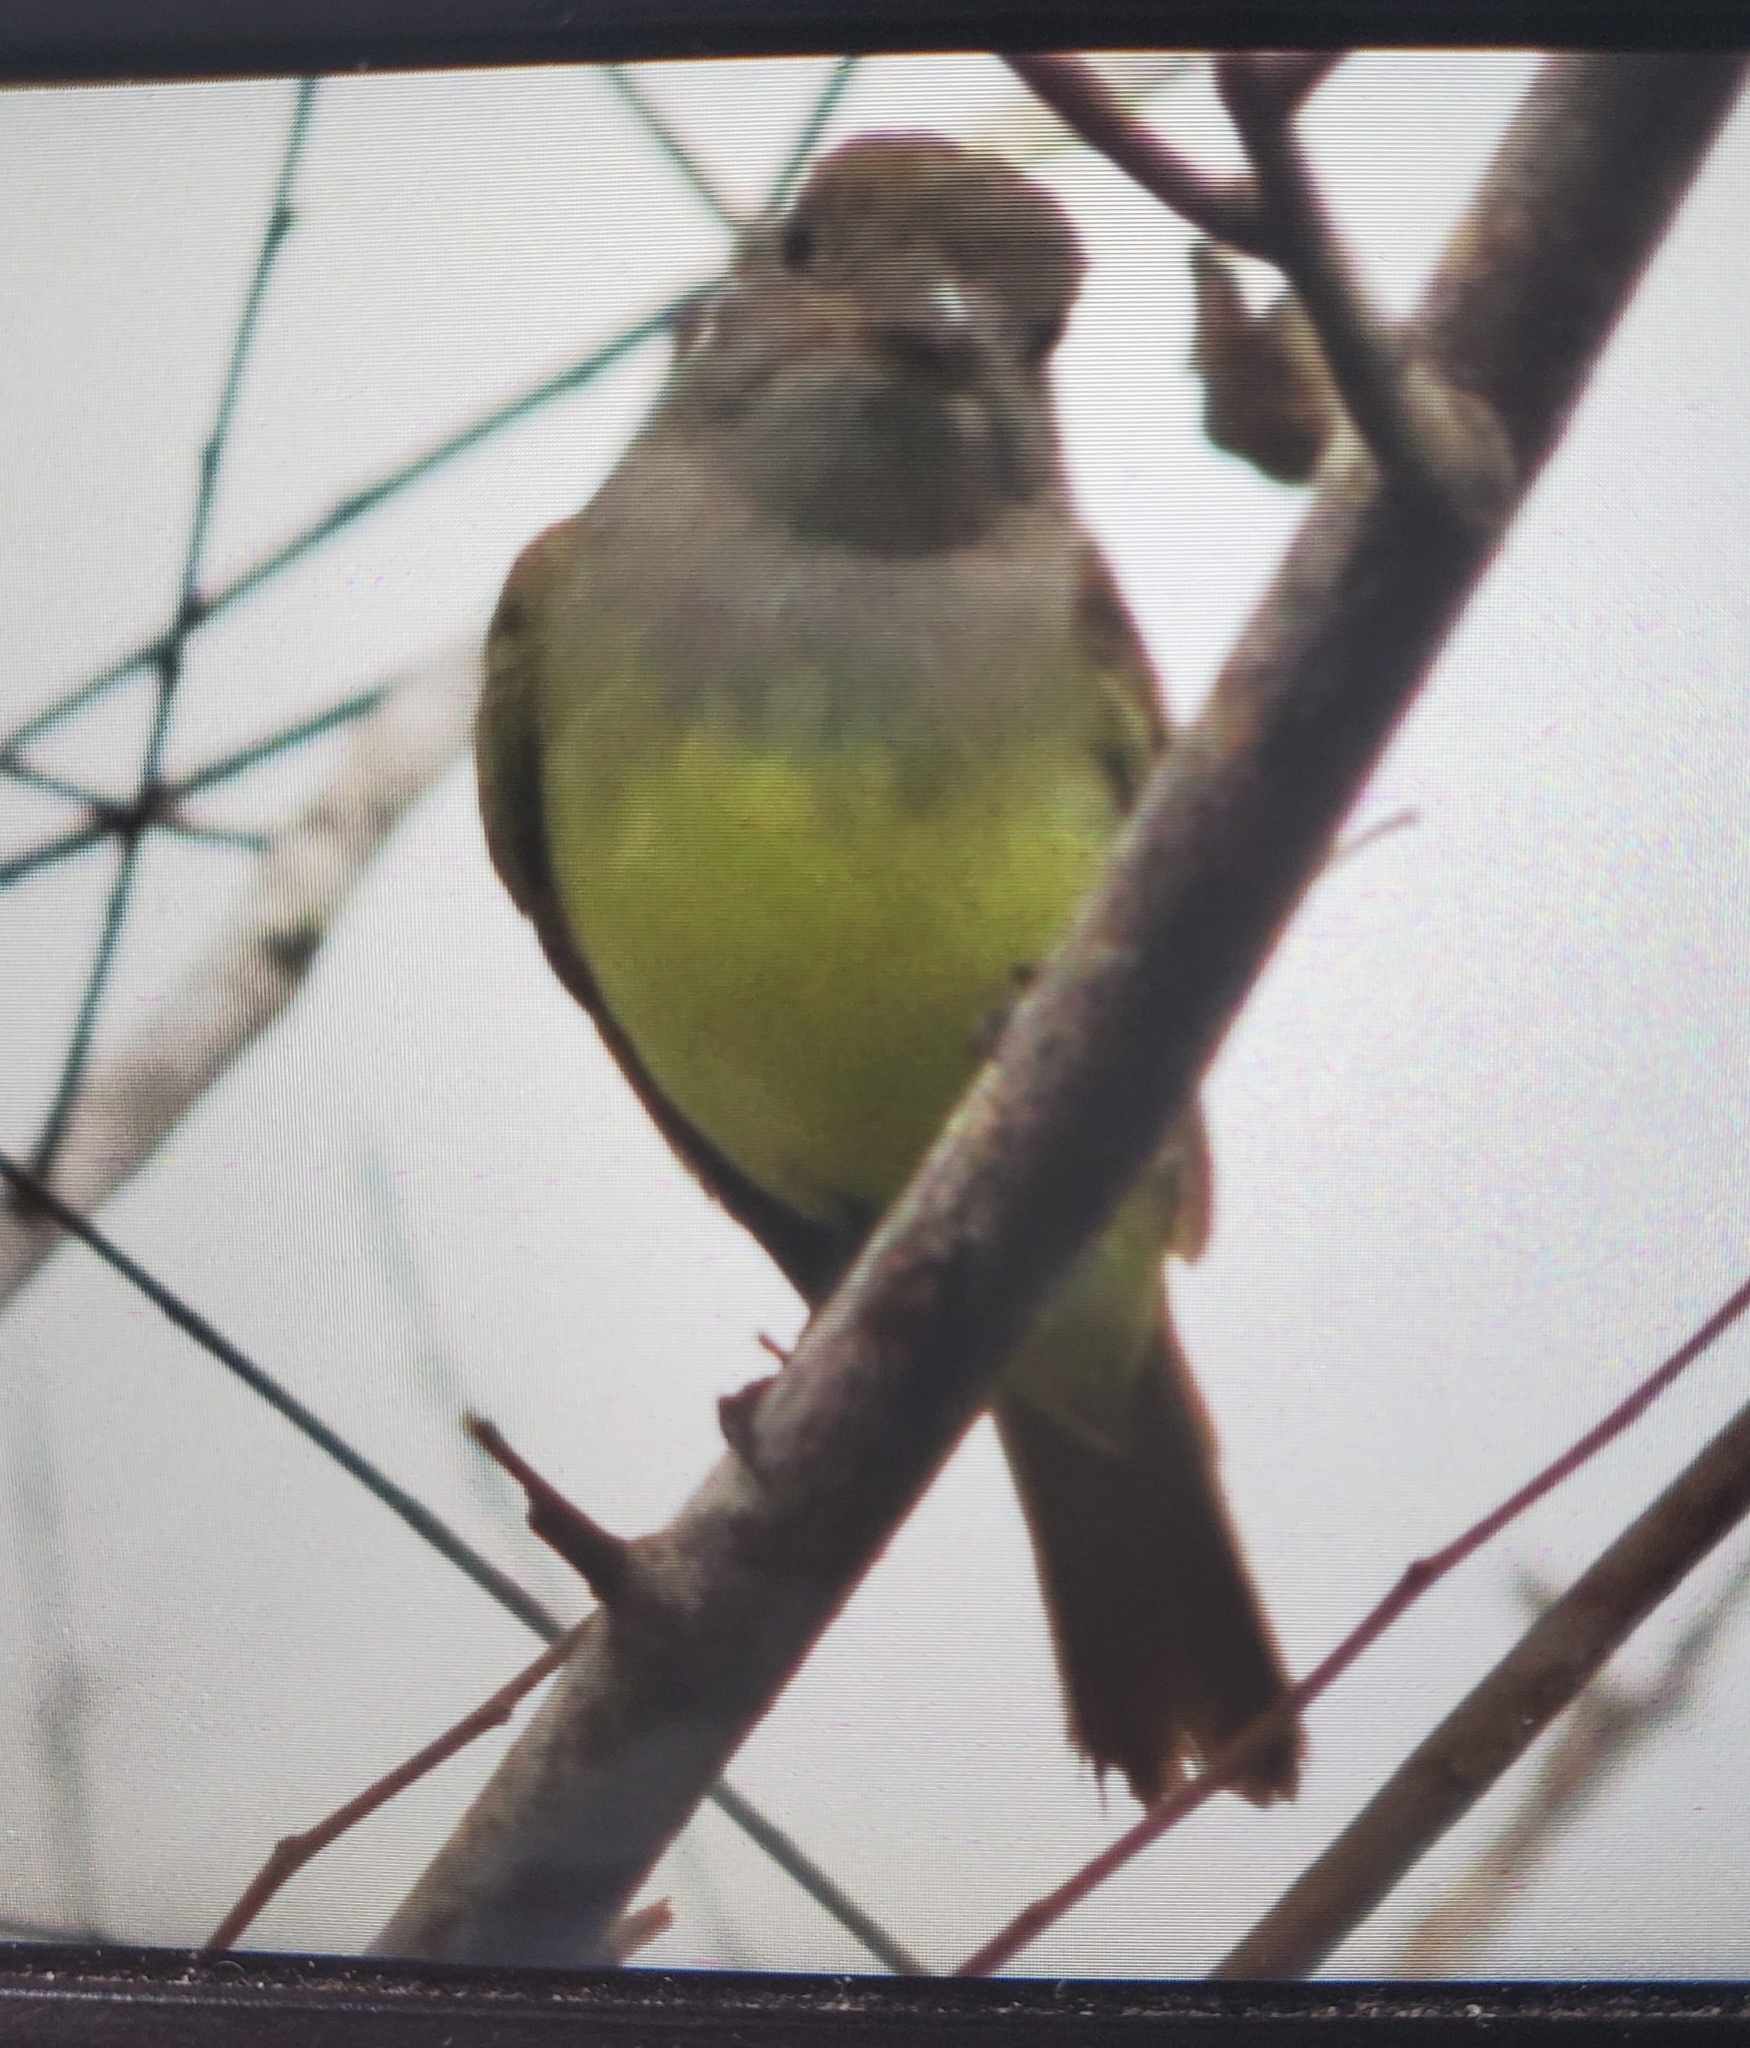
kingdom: Animalia
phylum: Chordata
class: Aves
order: Passeriformes
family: Tyrannidae
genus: Myiarchus
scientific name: Myiarchus crinitus
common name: Great crested flycatcher
